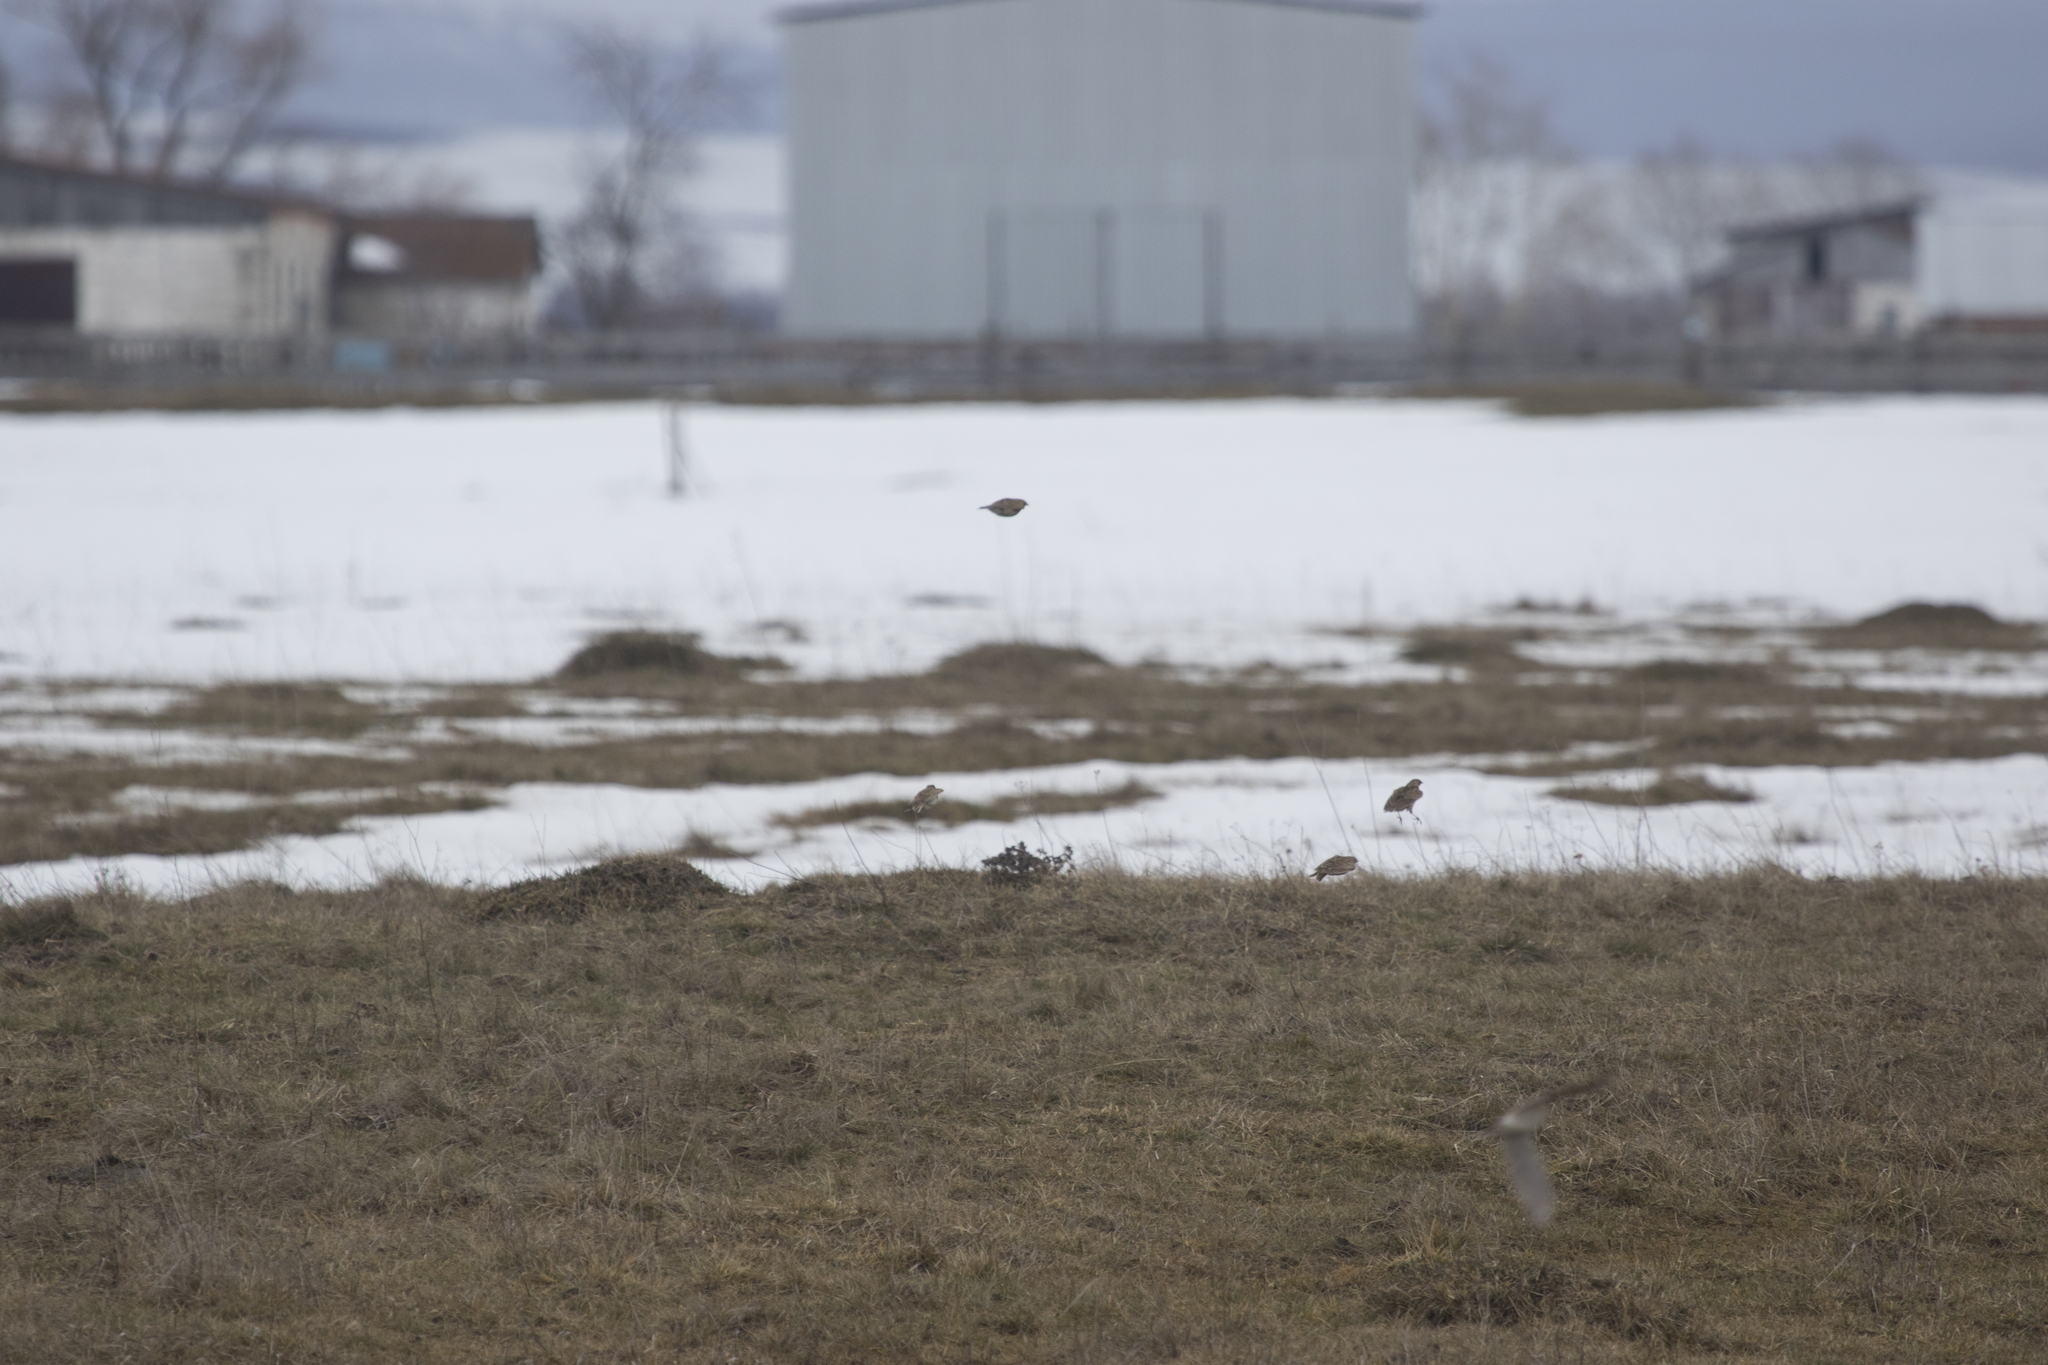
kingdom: Animalia
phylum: Chordata
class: Aves
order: Passeriformes
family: Alaudidae
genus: Alauda
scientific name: Alauda arvensis
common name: Eurasian skylark
